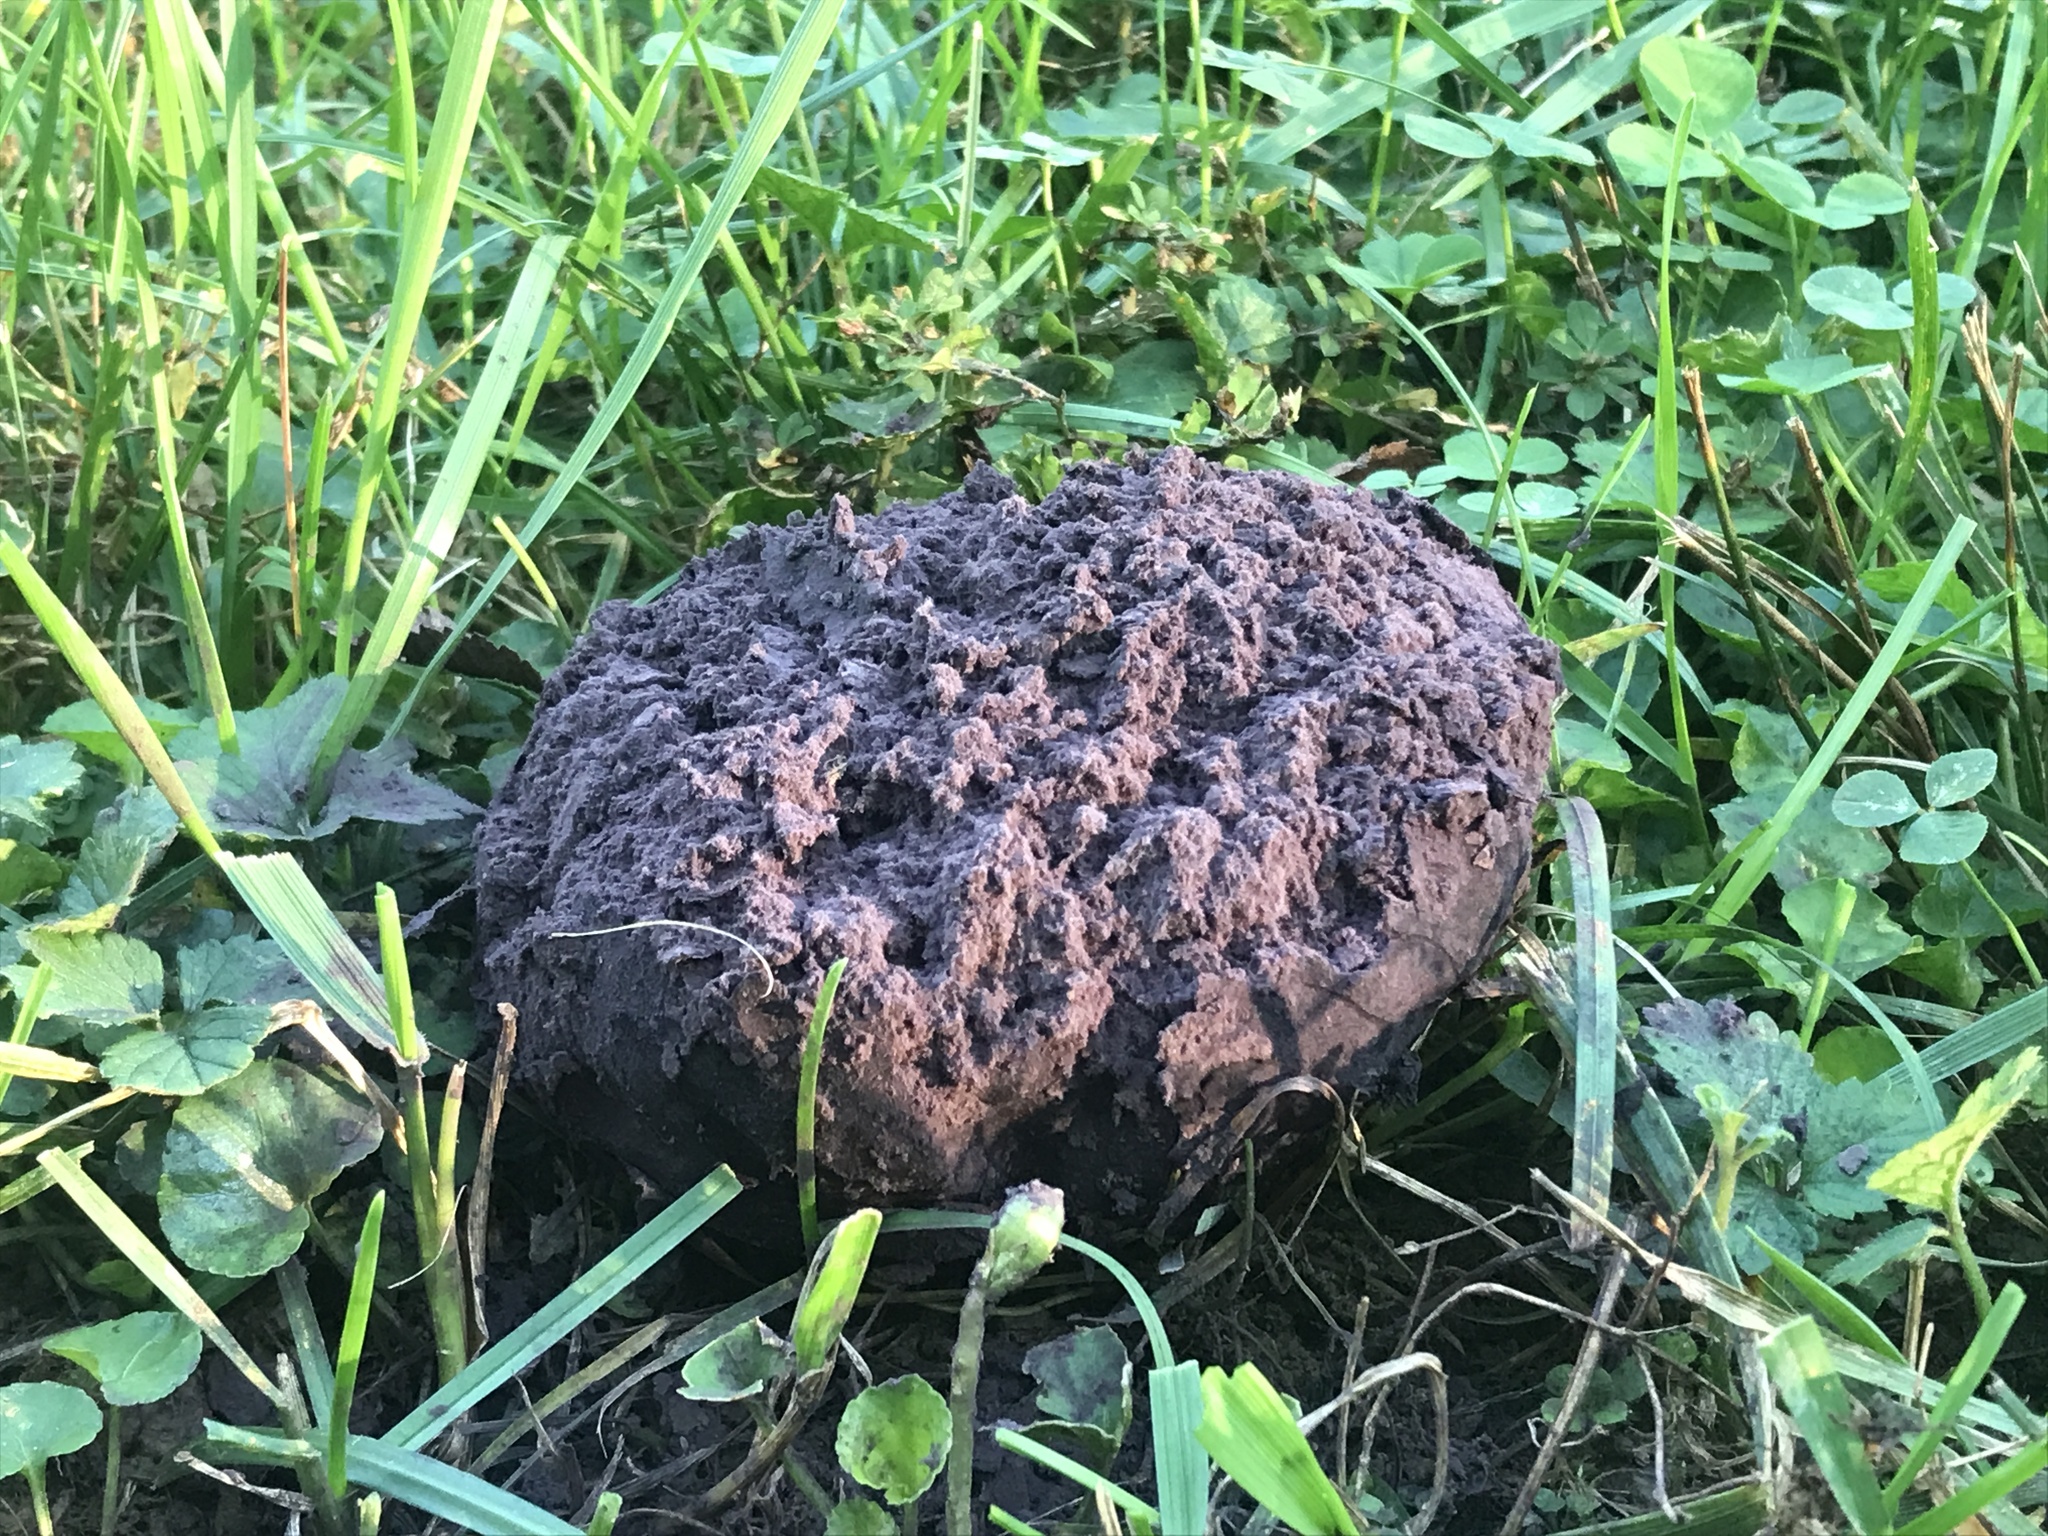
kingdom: Fungi
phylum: Basidiomycota
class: Agaricomycetes
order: Agaricales
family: Lycoperdaceae
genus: Calvatia
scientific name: Calvatia cyathiformis
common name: Purple-spored puffball
